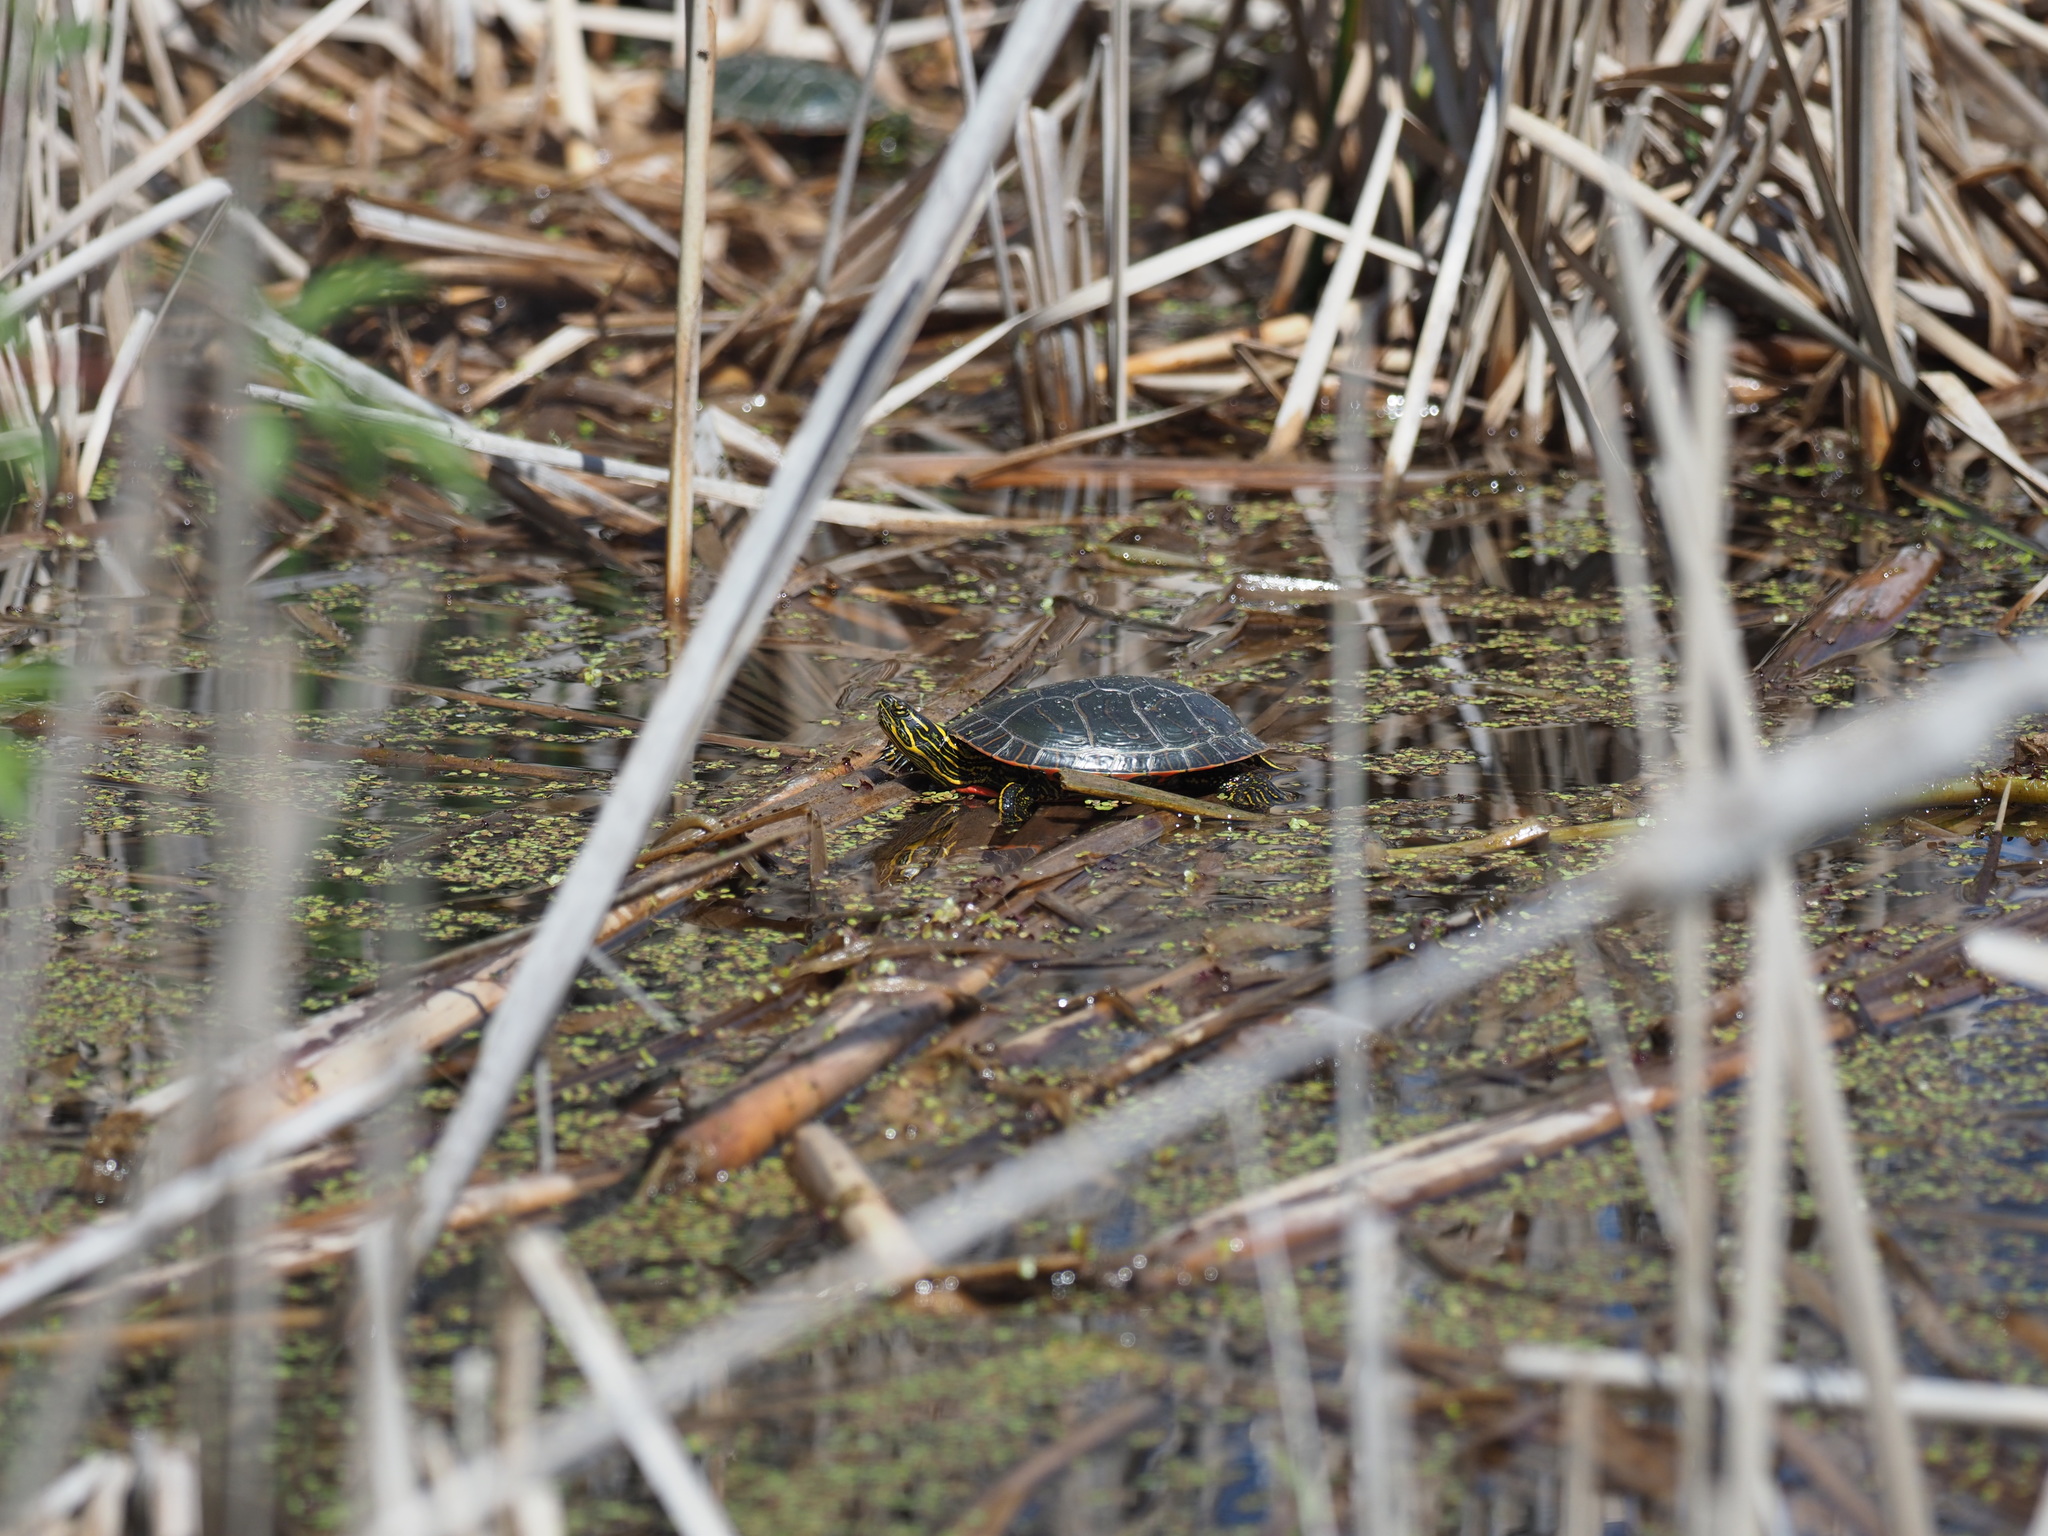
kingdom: Animalia
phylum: Chordata
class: Testudines
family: Emydidae
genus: Chrysemys
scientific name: Chrysemys picta
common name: Painted turtle
